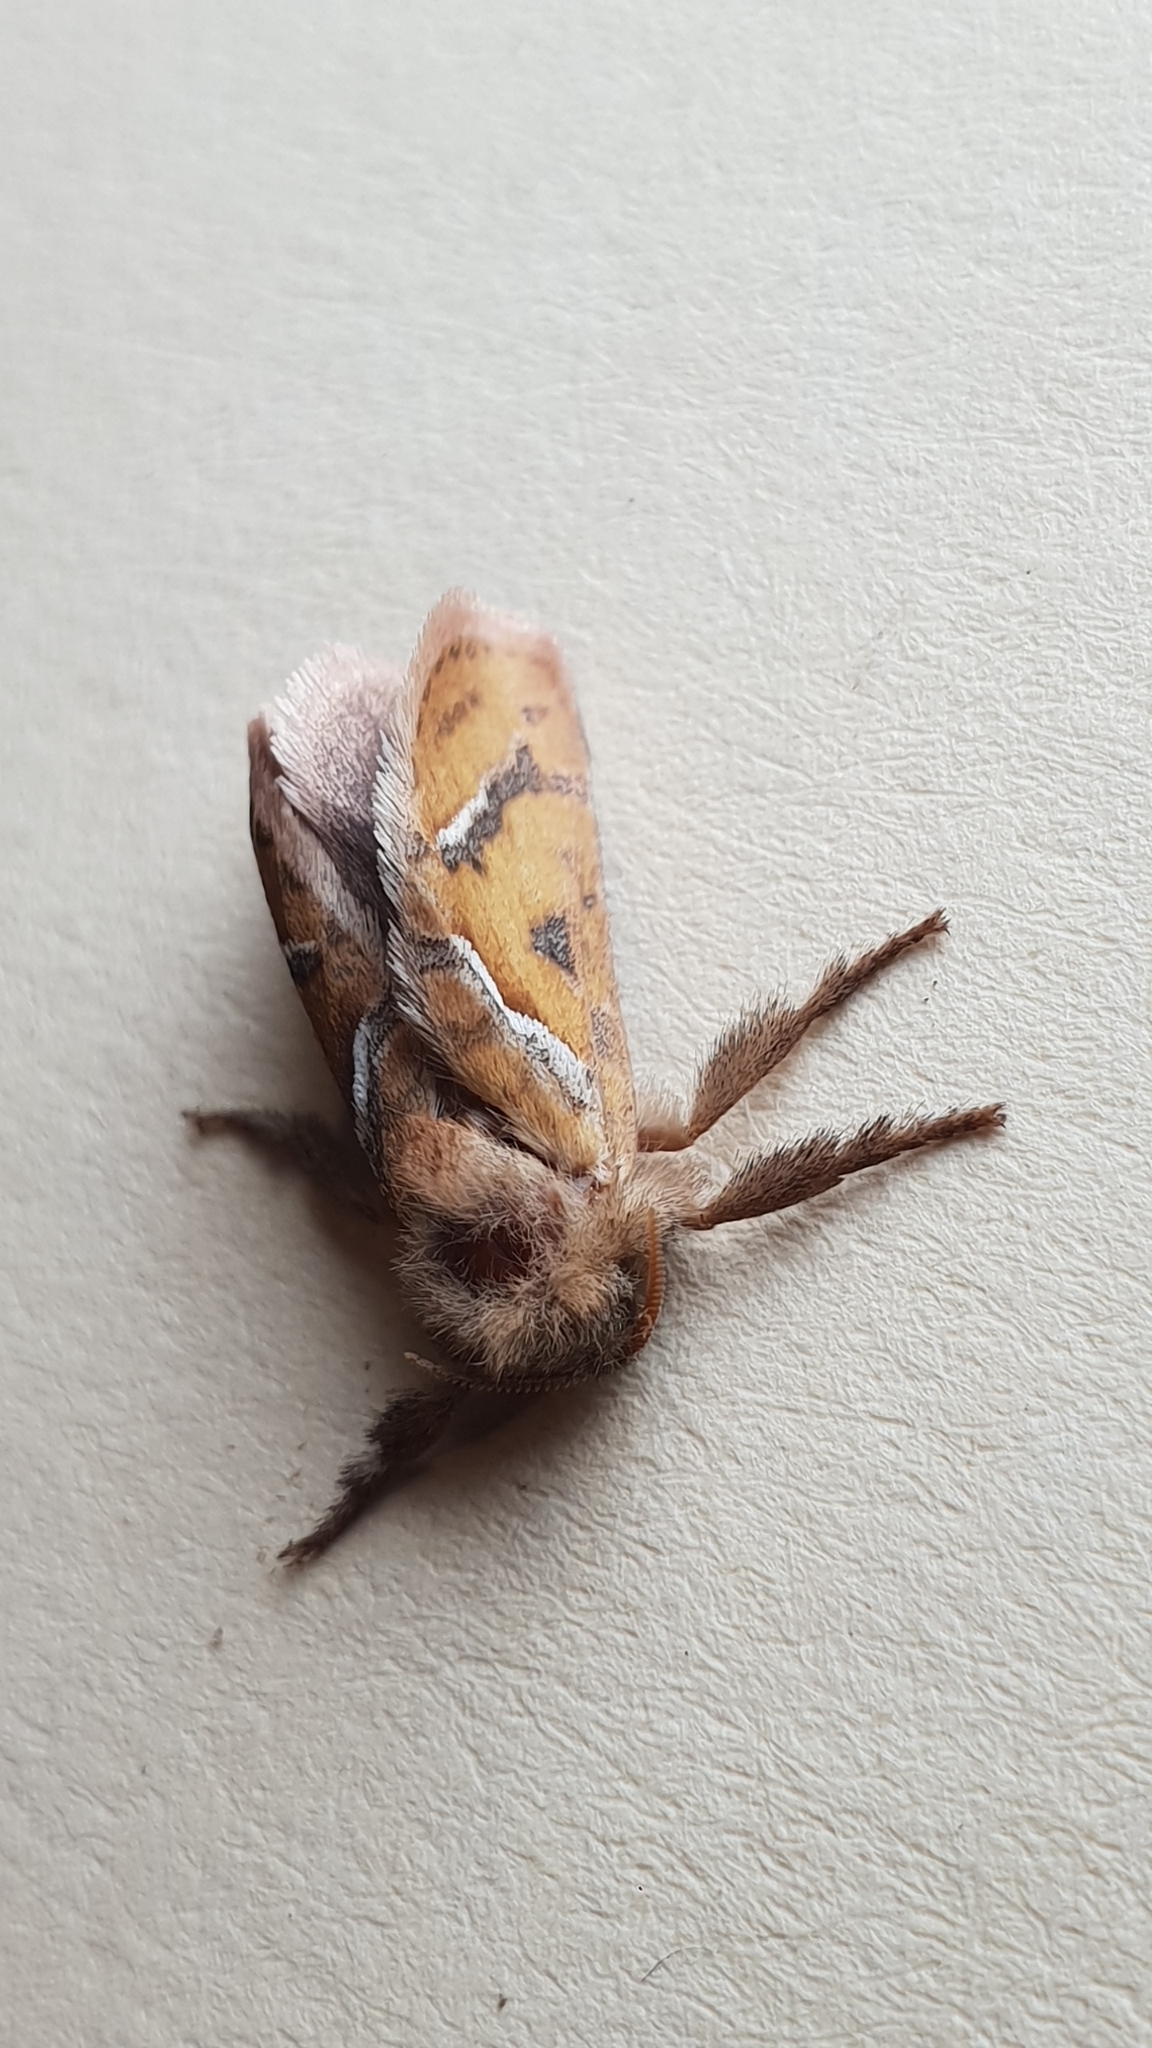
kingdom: Animalia
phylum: Arthropoda
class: Insecta
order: Lepidoptera
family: Hepialidae
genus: Triodia
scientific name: Triodia sylvina
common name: Orange swift
